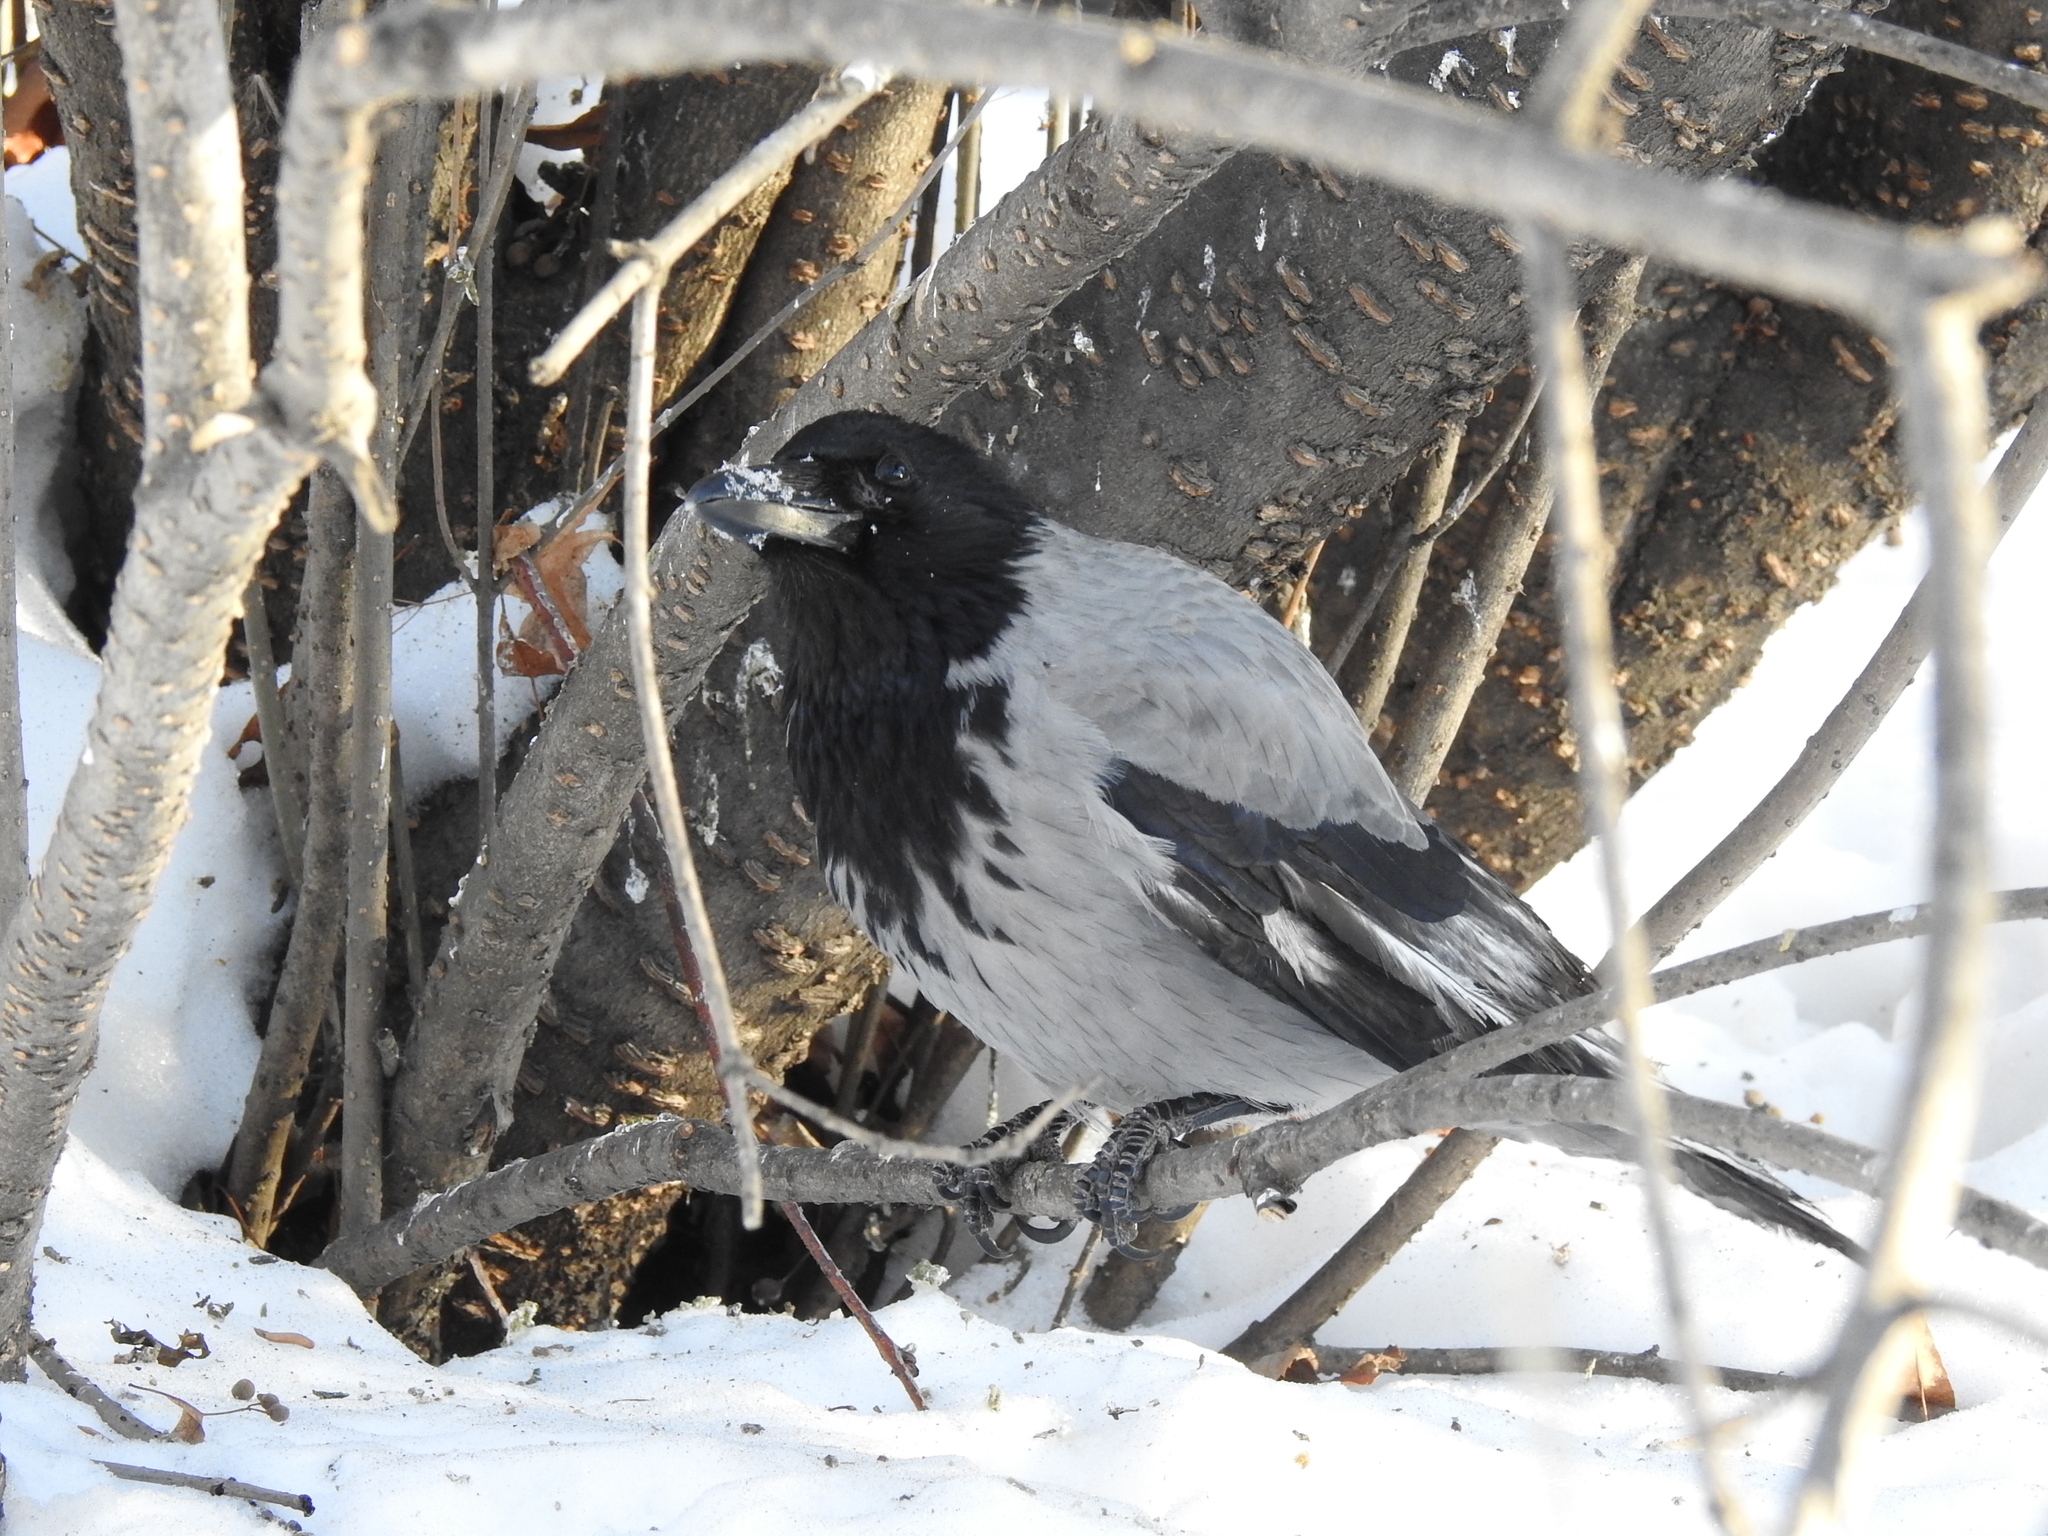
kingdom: Animalia
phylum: Chordata
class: Aves
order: Passeriformes
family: Corvidae
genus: Corvus
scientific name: Corvus cornix
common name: Hooded crow
